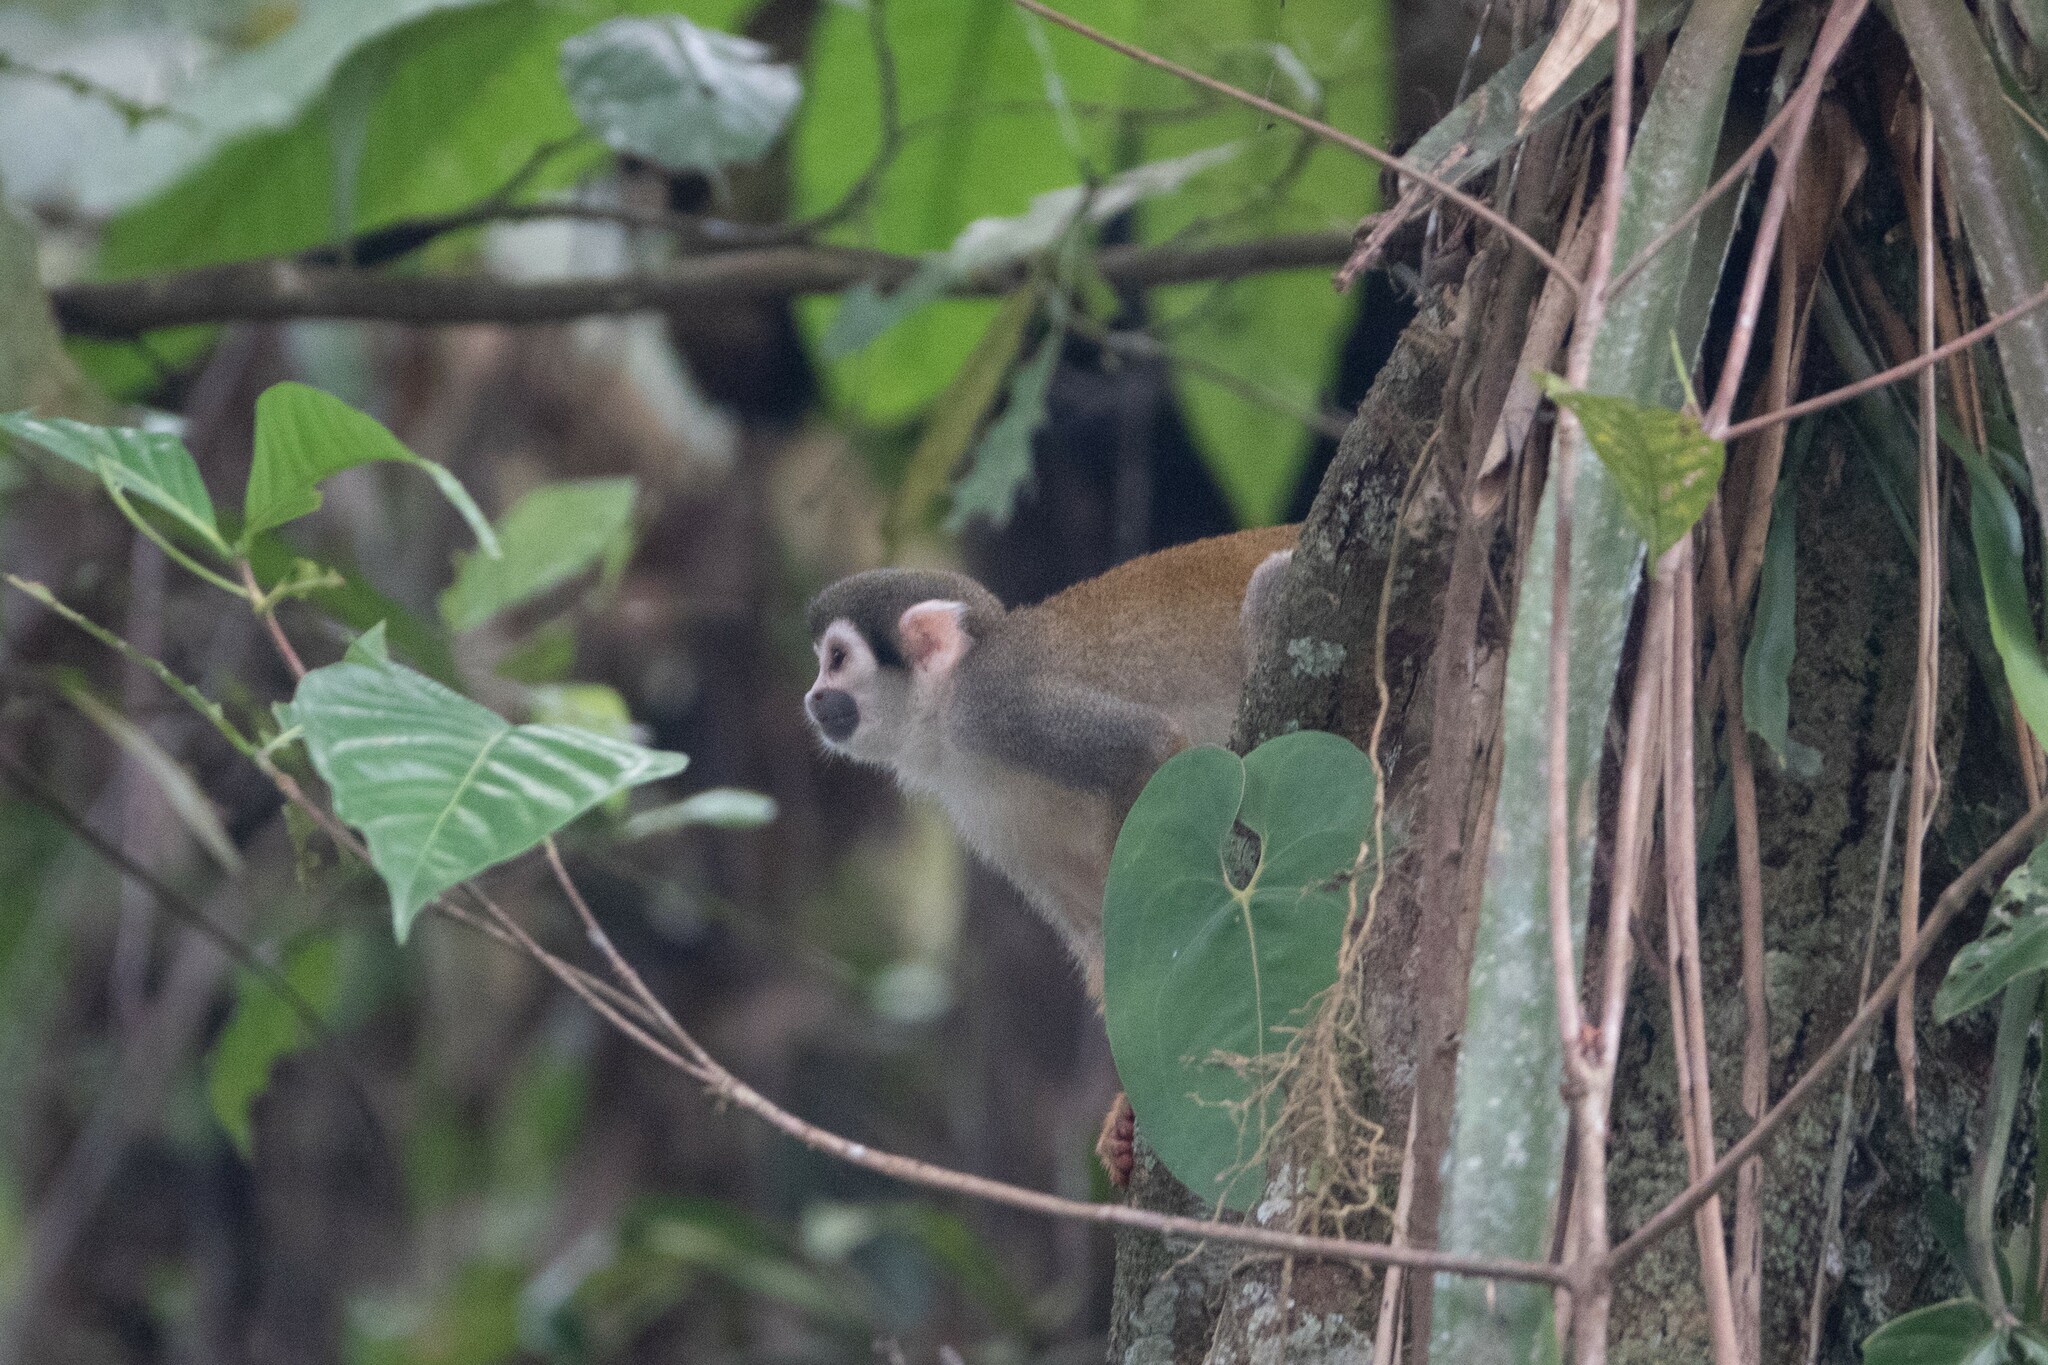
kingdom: Animalia
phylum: Chordata
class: Mammalia
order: Primates
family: Cebidae
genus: Saimiri
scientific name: Saimiri cassiquiarensis
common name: Humboldt’s squirrel monkey
